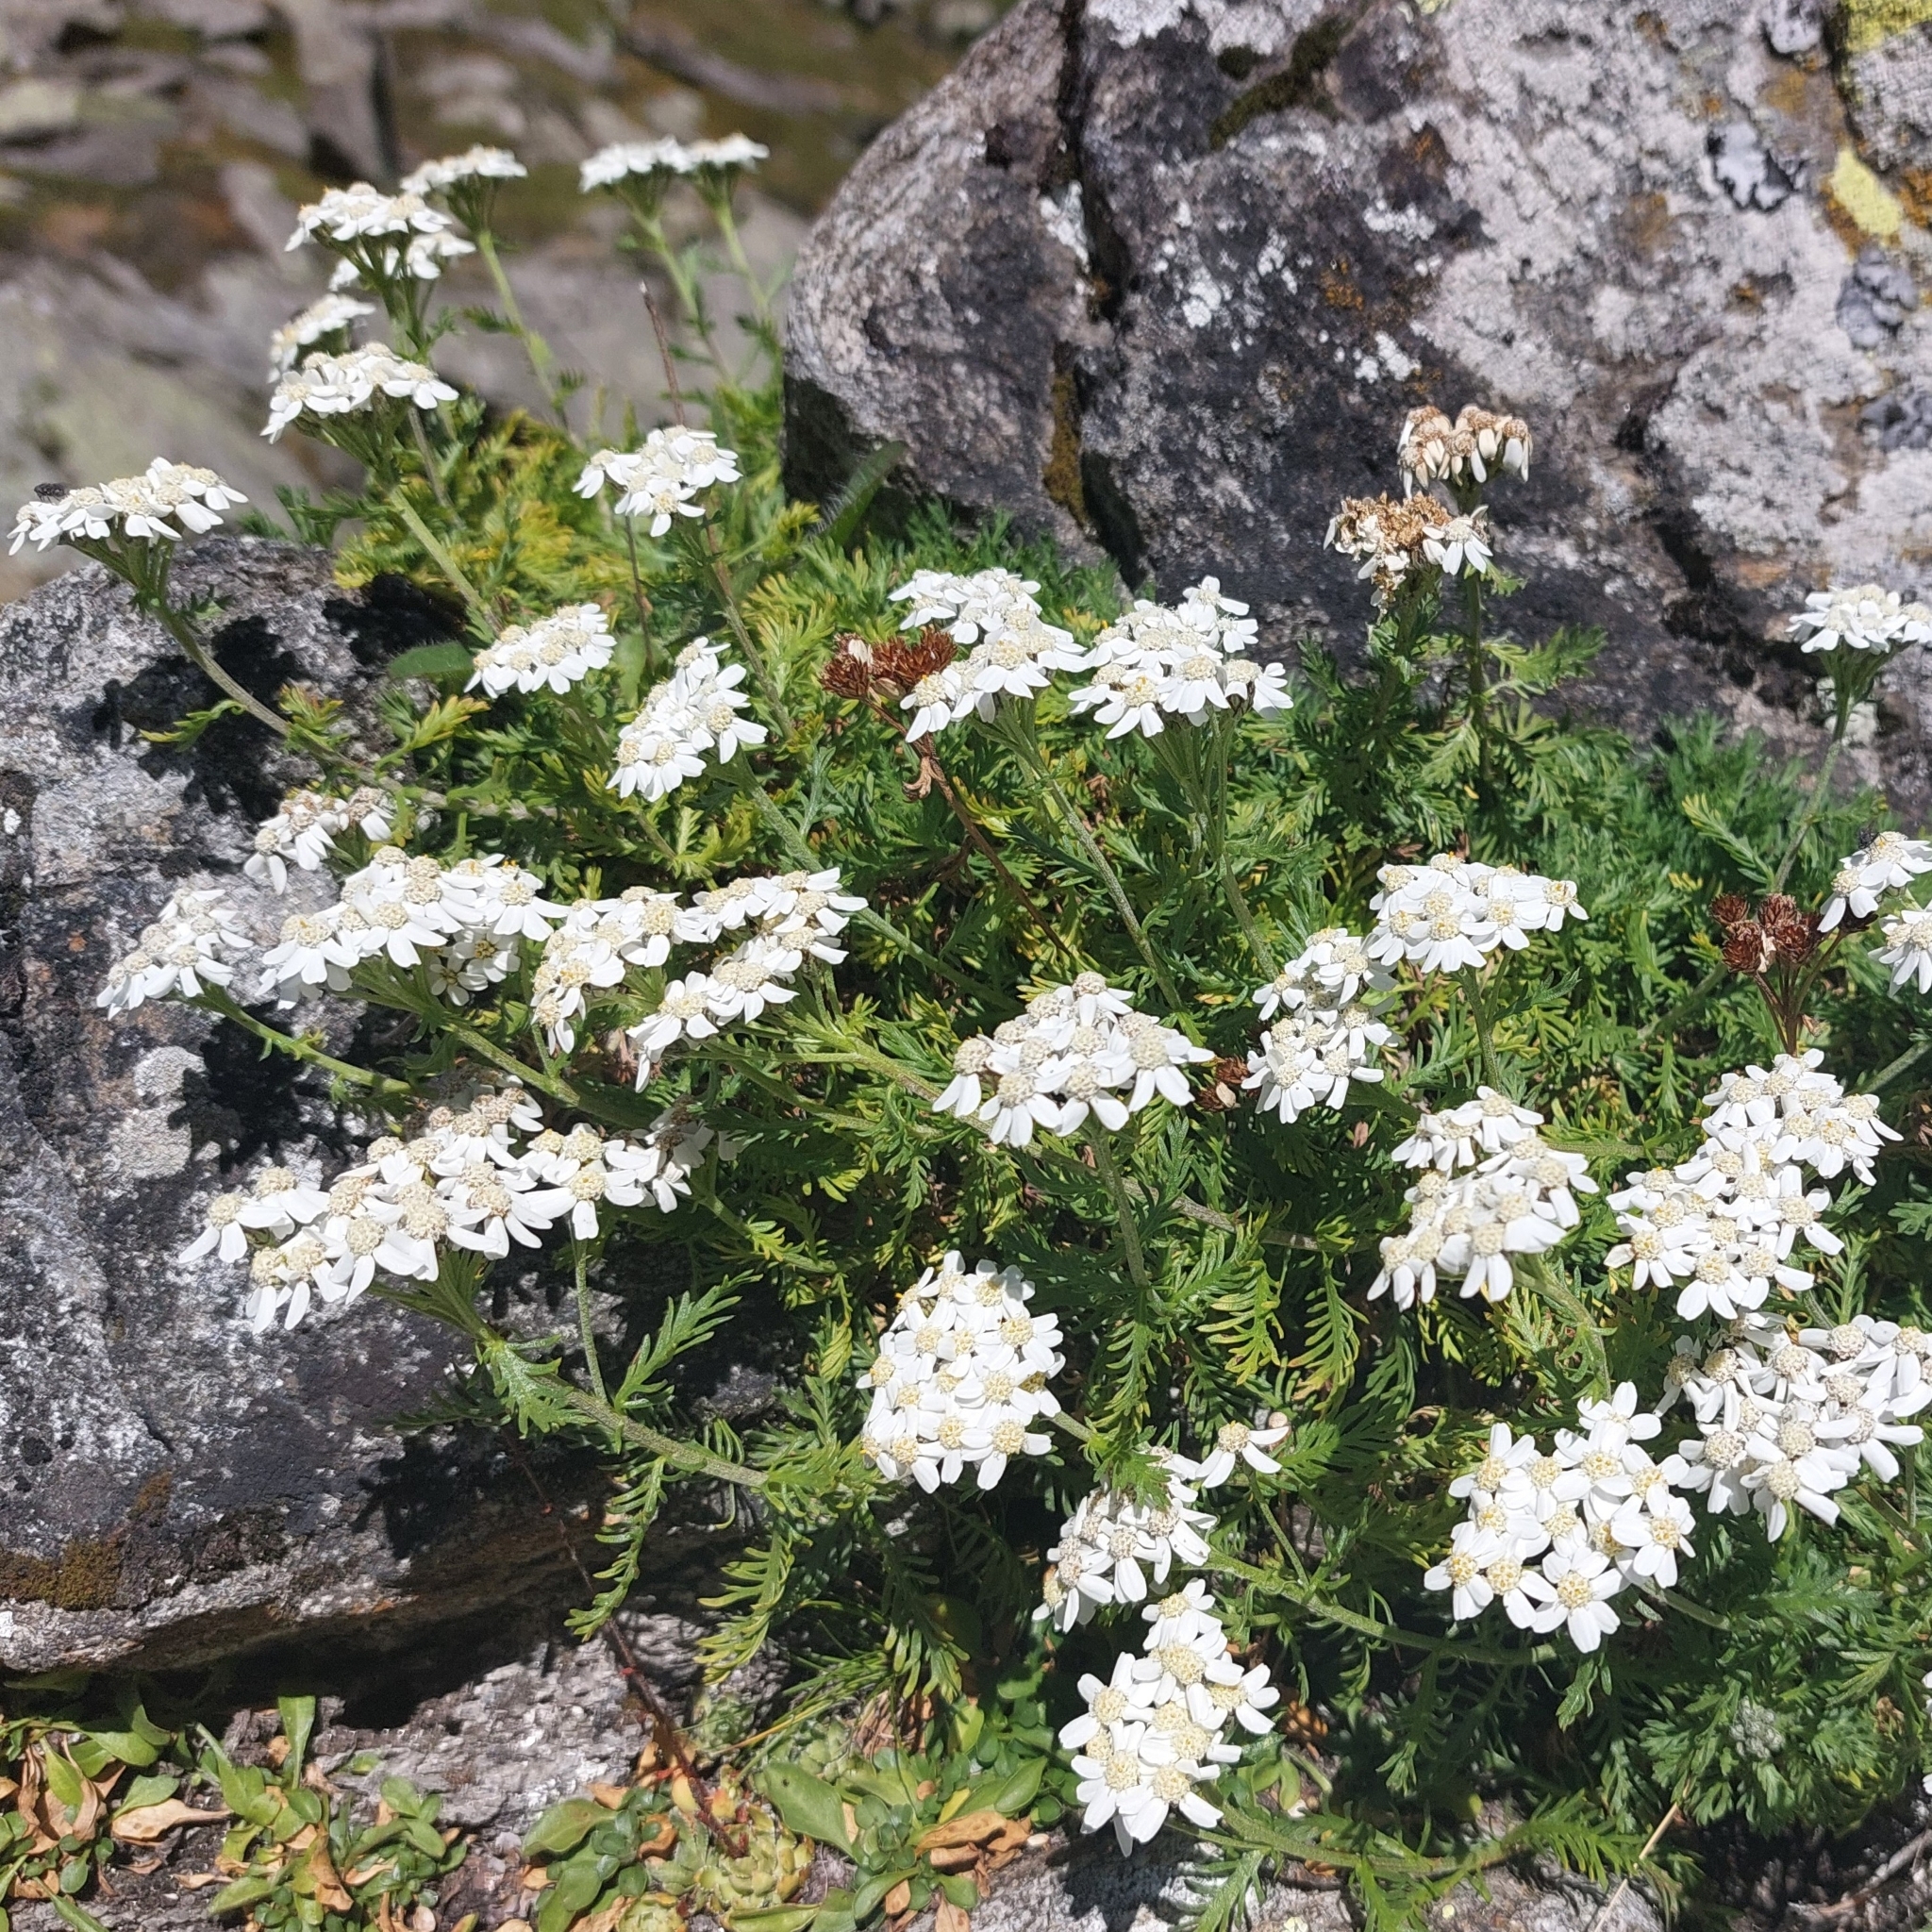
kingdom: Plantae
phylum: Tracheophyta
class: Magnoliopsida
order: Asterales
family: Asteraceae
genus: Achillea
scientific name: Achillea erba-rotta
